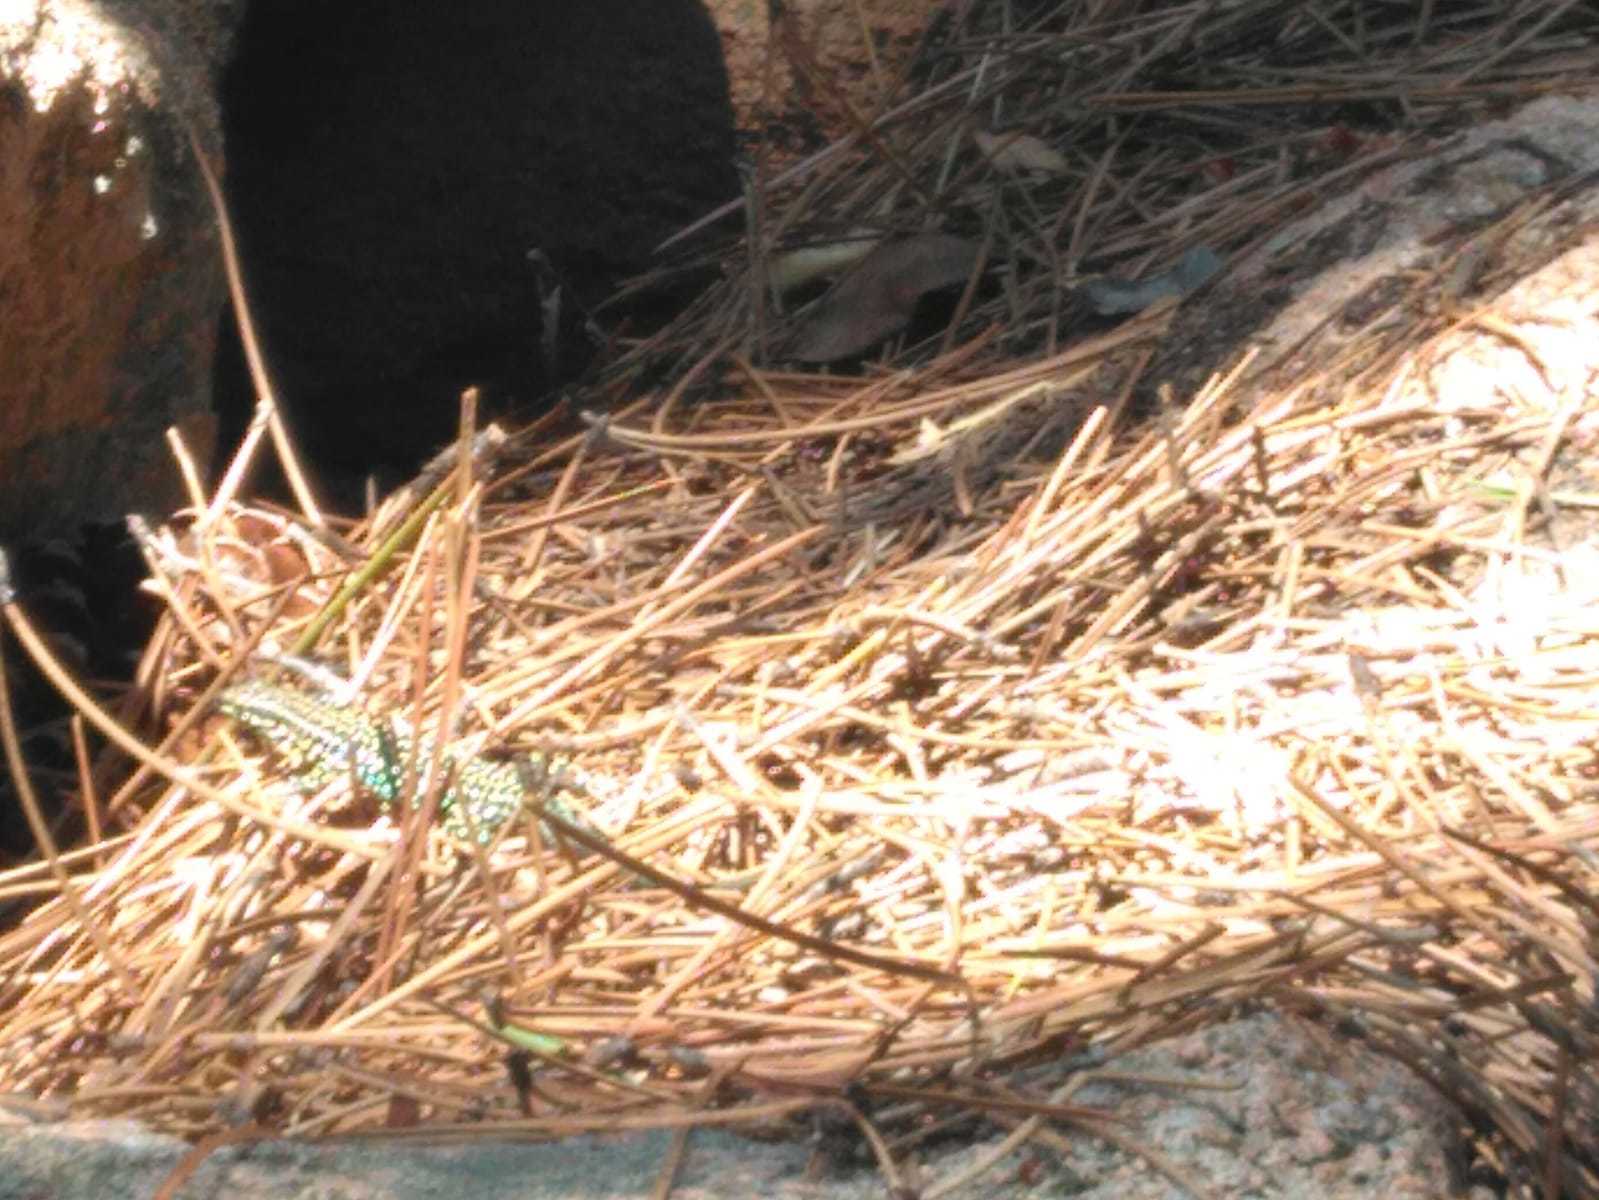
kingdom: Animalia
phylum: Chordata
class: Squamata
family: Lacertidae
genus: Podarcis
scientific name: Podarcis tiliguerta
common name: Tyrrhenian wall lizard
